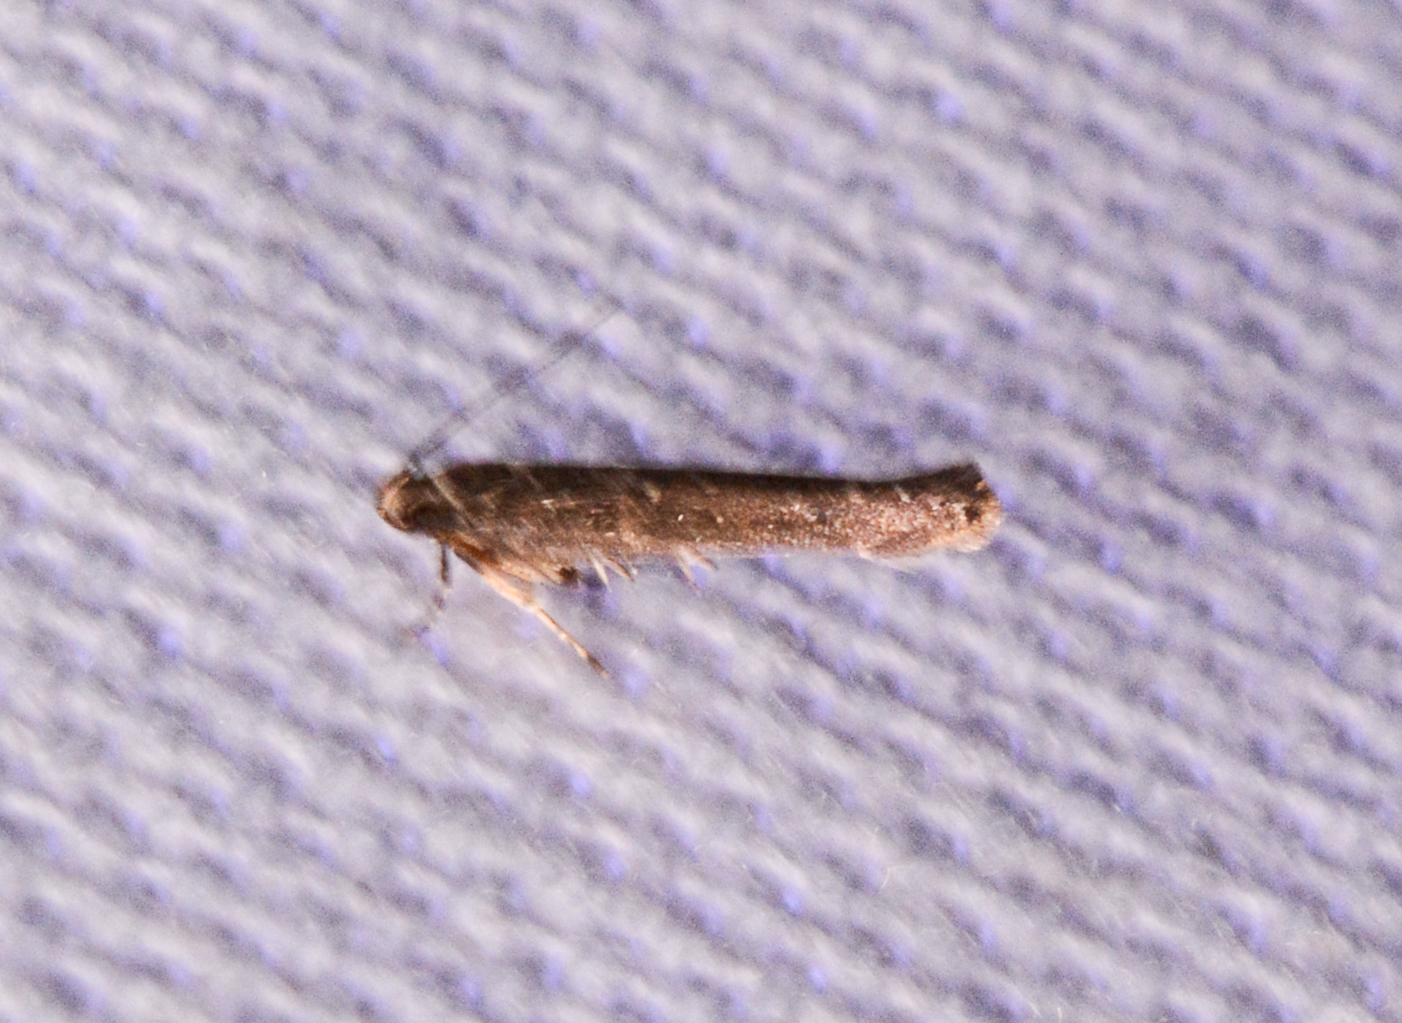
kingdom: Animalia
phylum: Arthropoda
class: Insecta
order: Lepidoptera
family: Cosmopterigidae
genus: Ithome
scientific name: Ithome erransella
